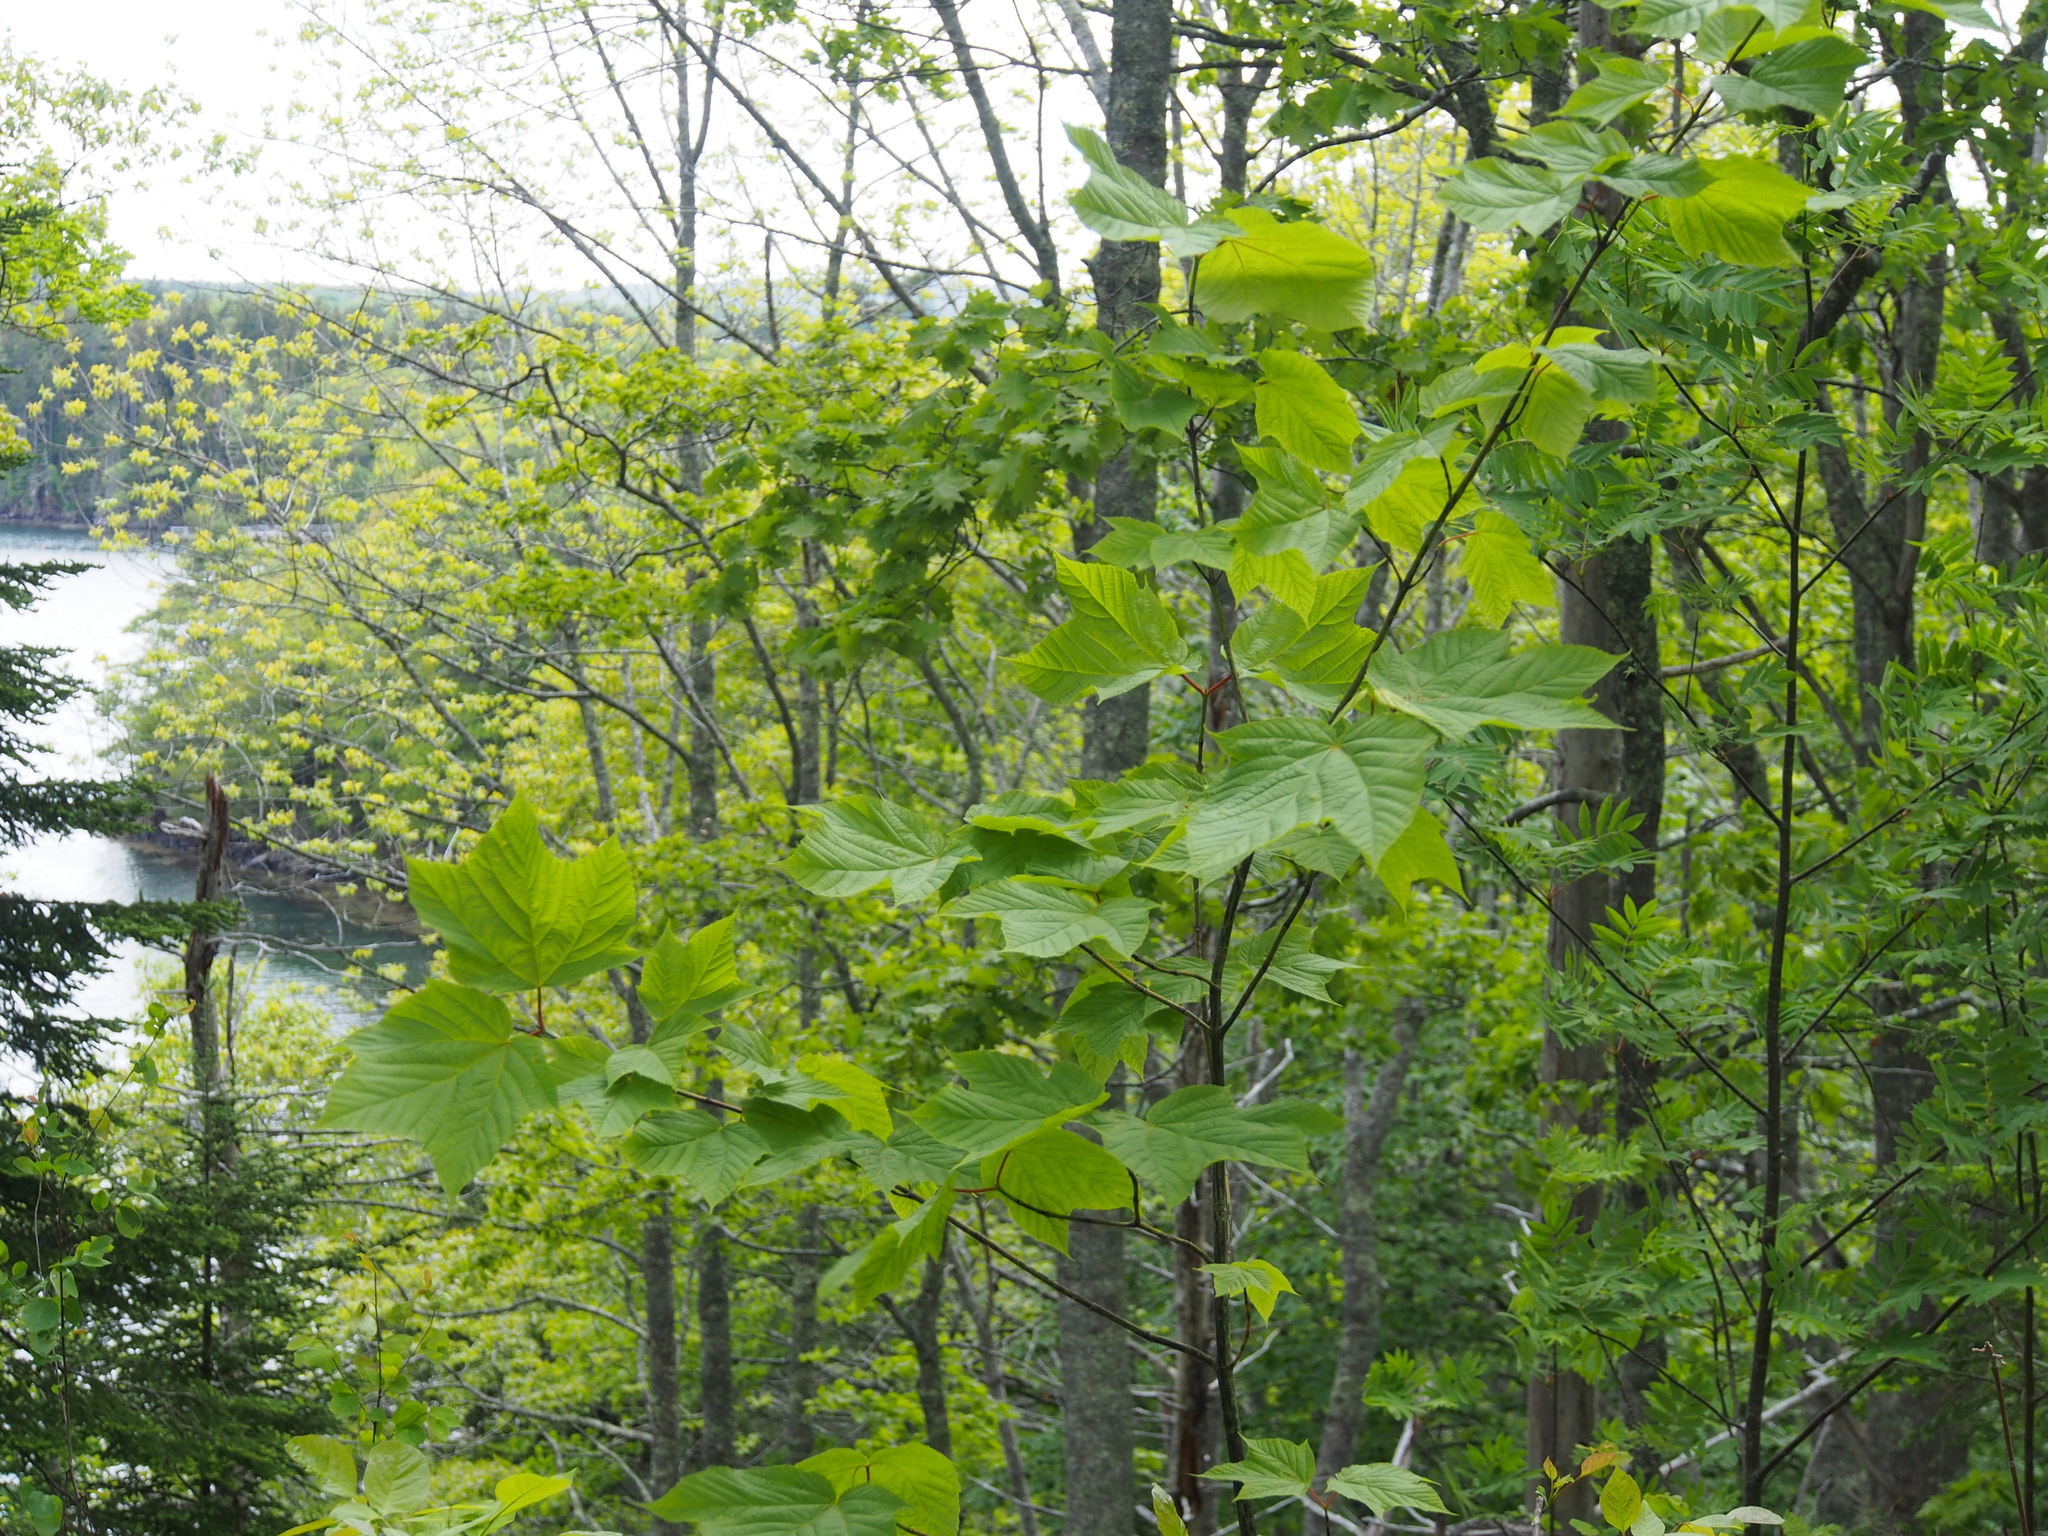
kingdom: Plantae
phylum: Tracheophyta
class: Magnoliopsida
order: Sapindales
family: Sapindaceae
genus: Acer
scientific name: Acer pensylvanicum
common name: Moosewood
